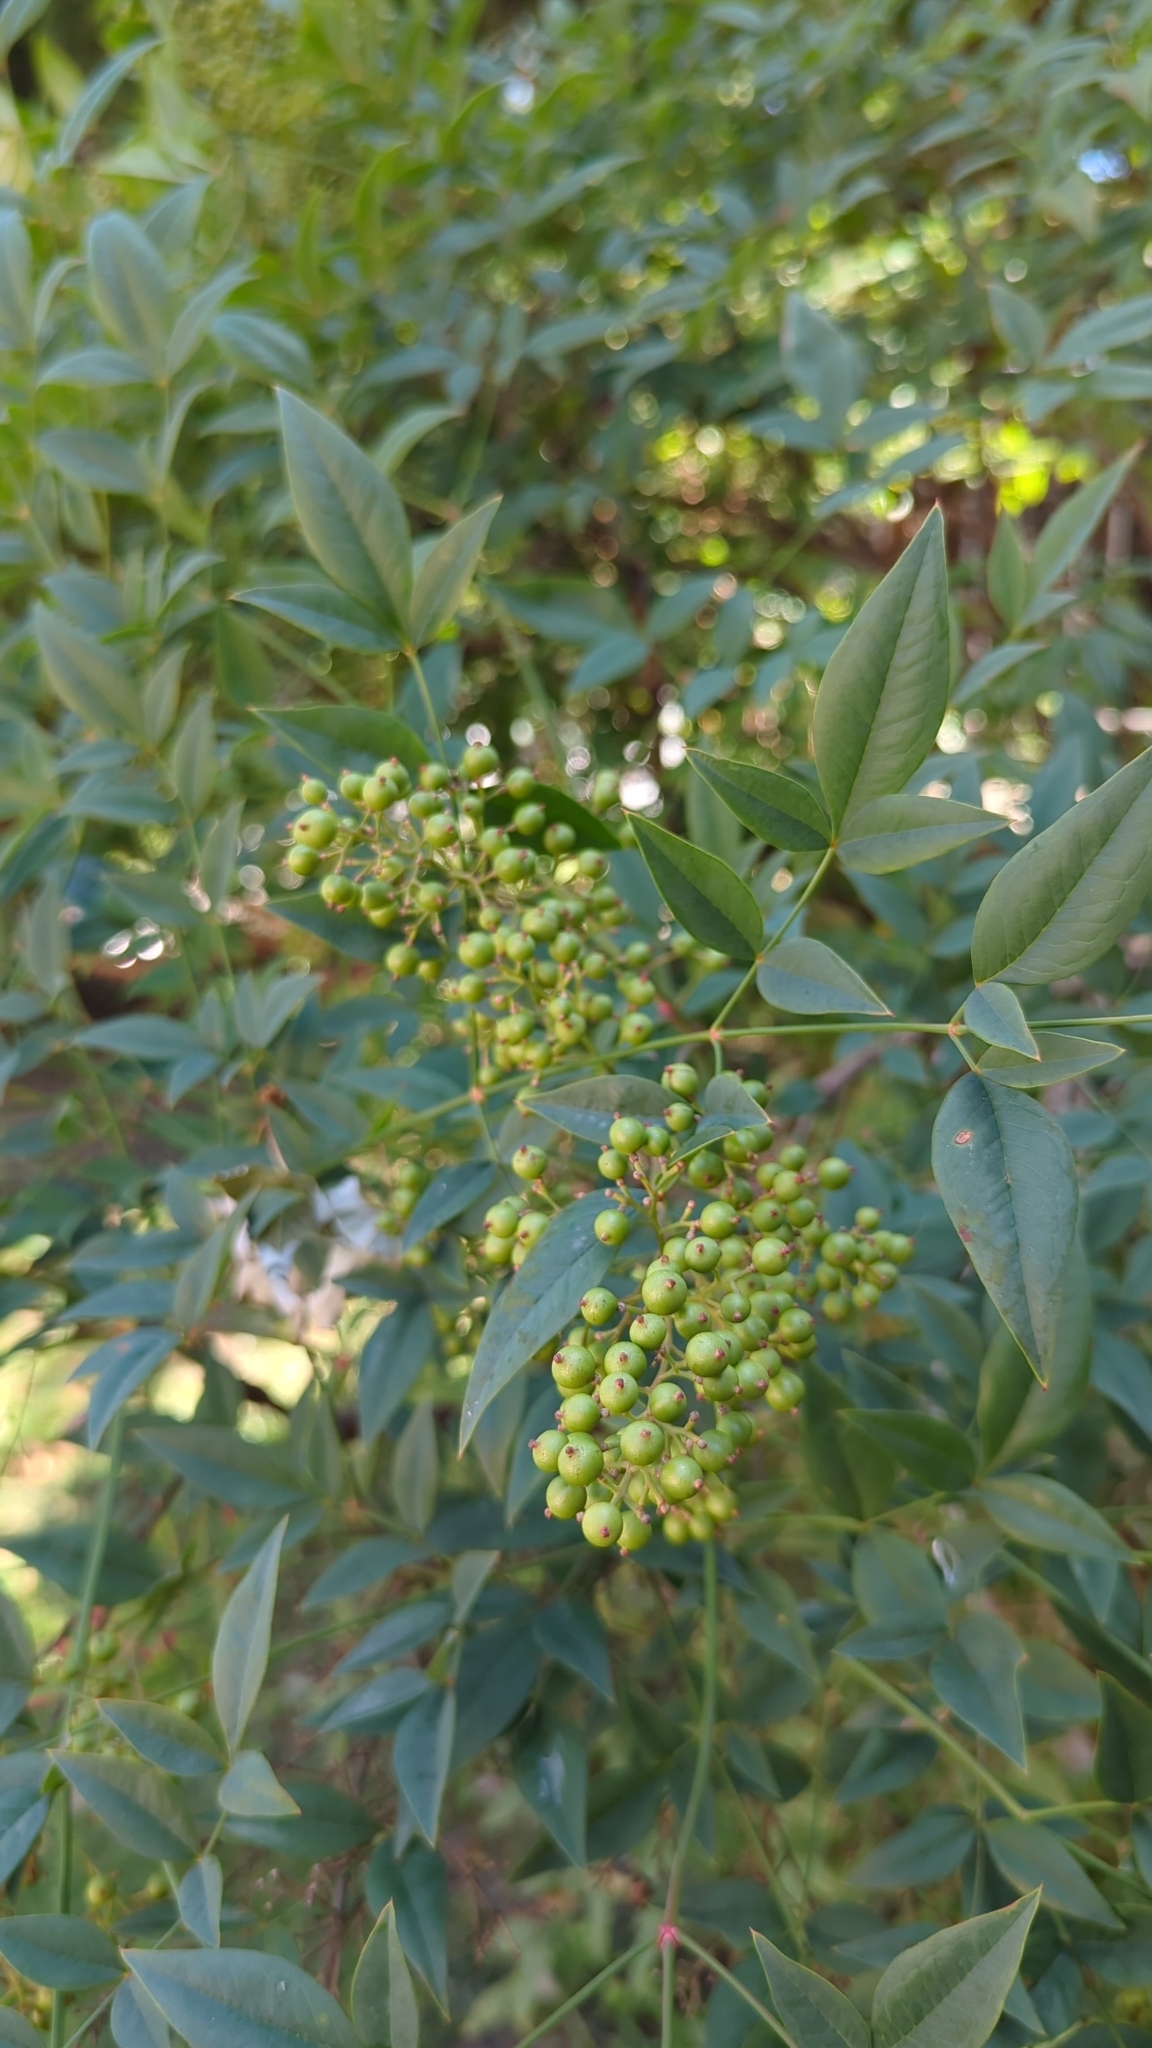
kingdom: Plantae
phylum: Tracheophyta
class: Magnoliopsida
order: Ranunculales
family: Berberidaceae
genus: Nandina
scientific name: Nandina domestica
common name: Sacred bamboo
